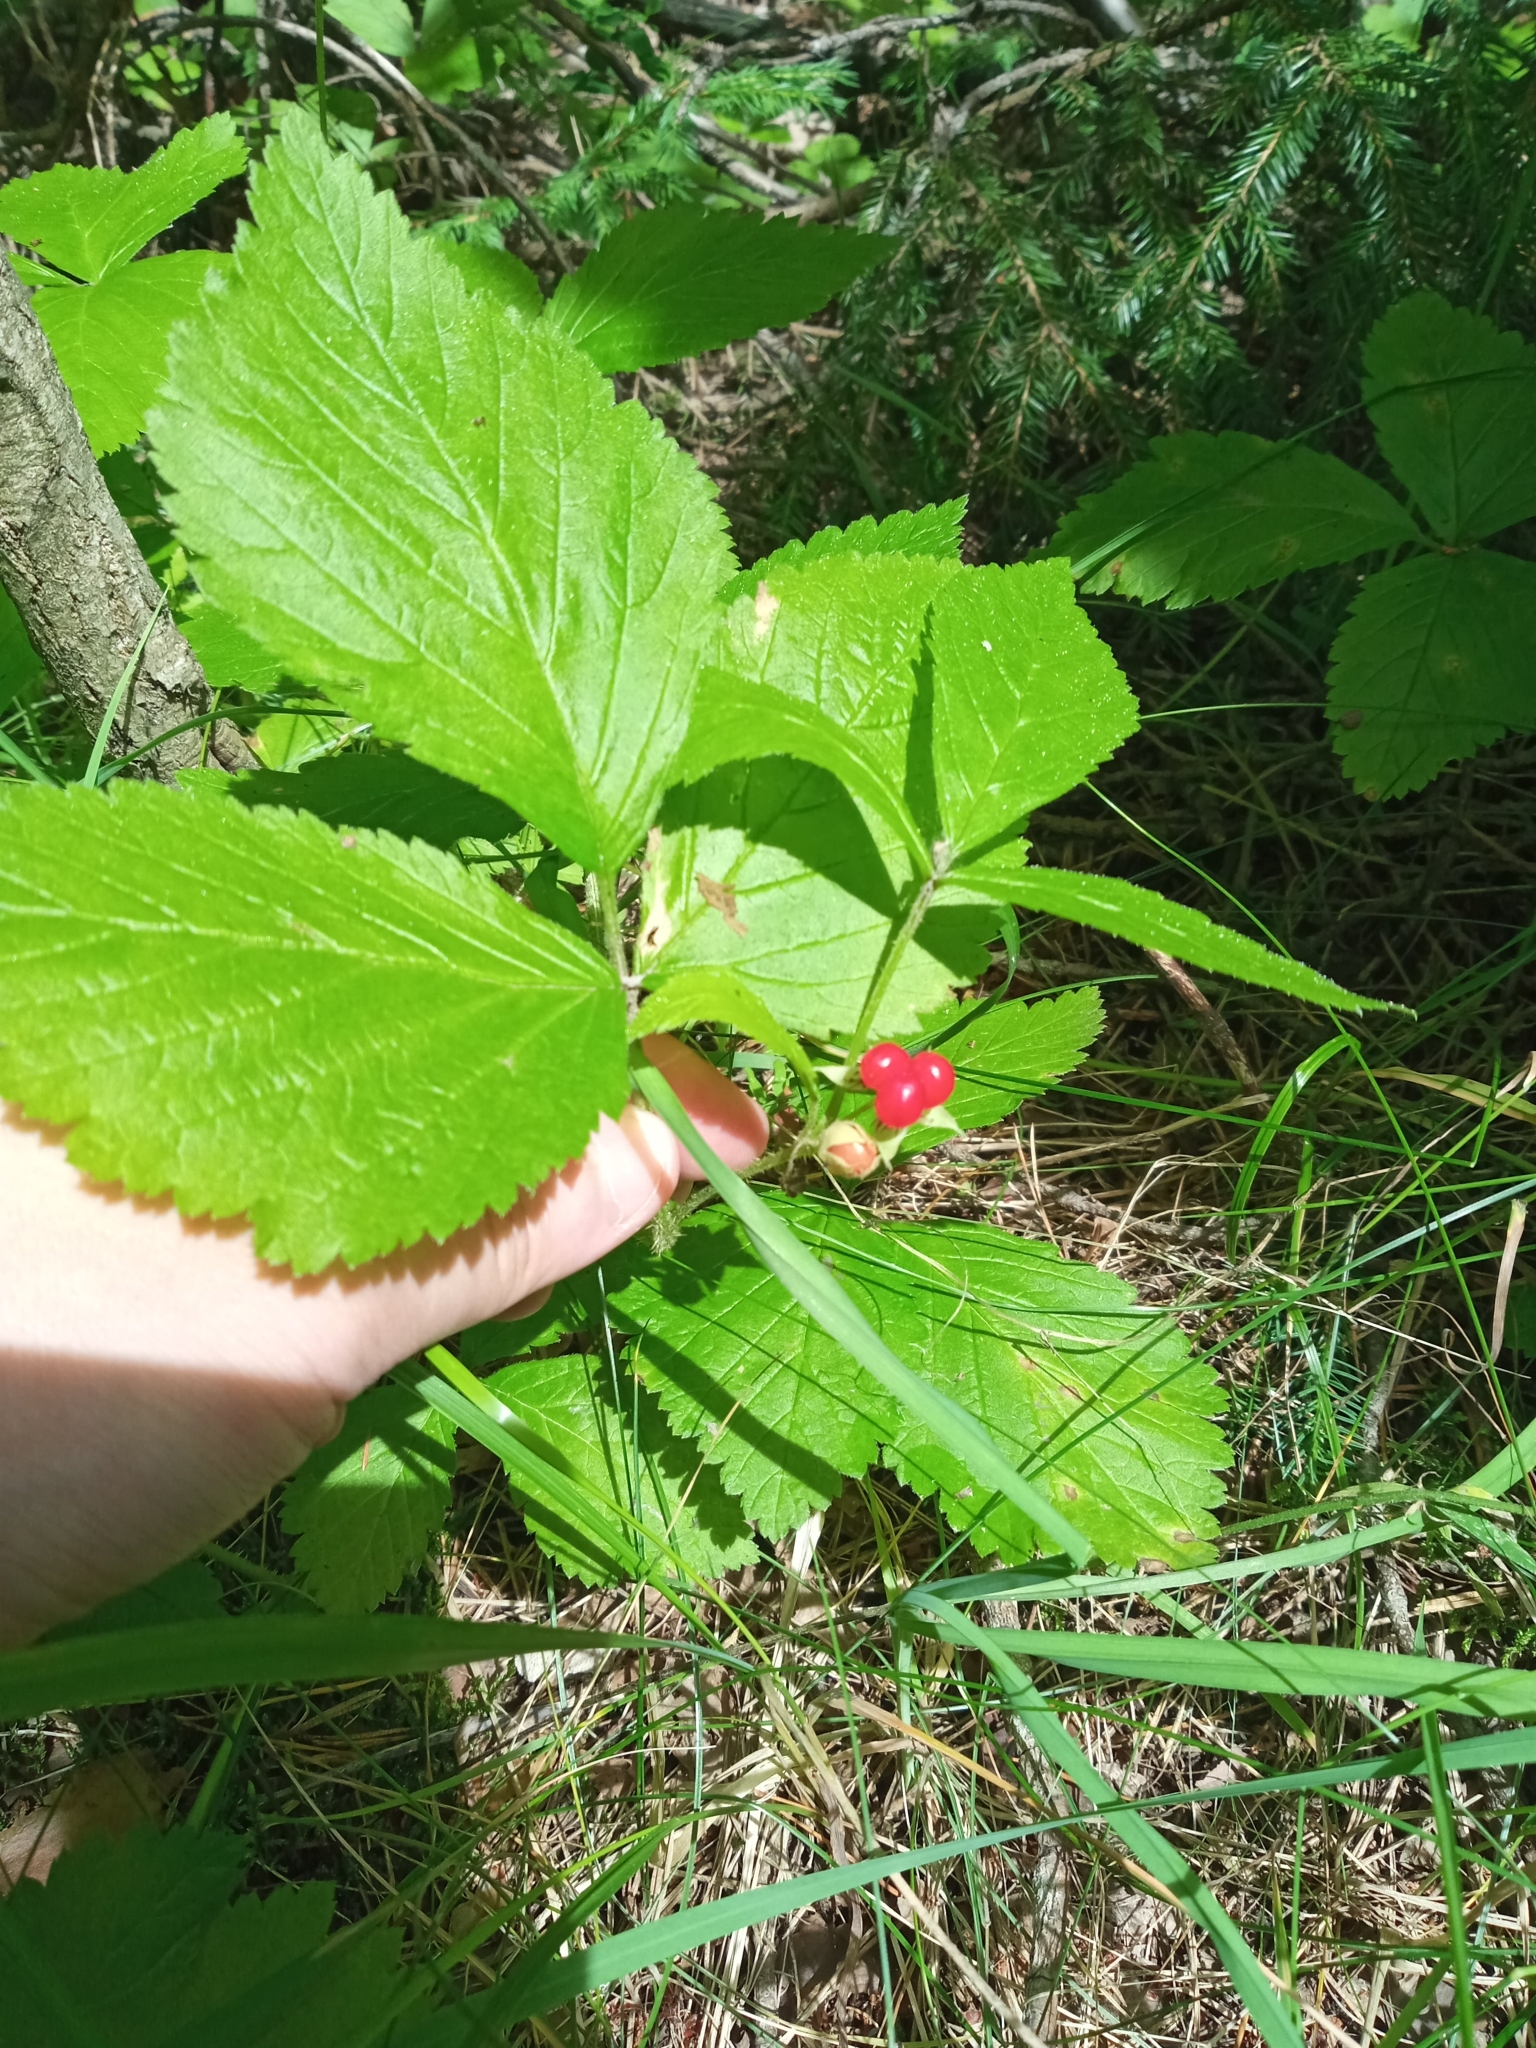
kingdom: Plantae
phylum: Tracheophyta
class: Magnoliopsida
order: Rosales
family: Rosaceae
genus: Rubus
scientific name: Rubus saxatilis
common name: Stone bramble
